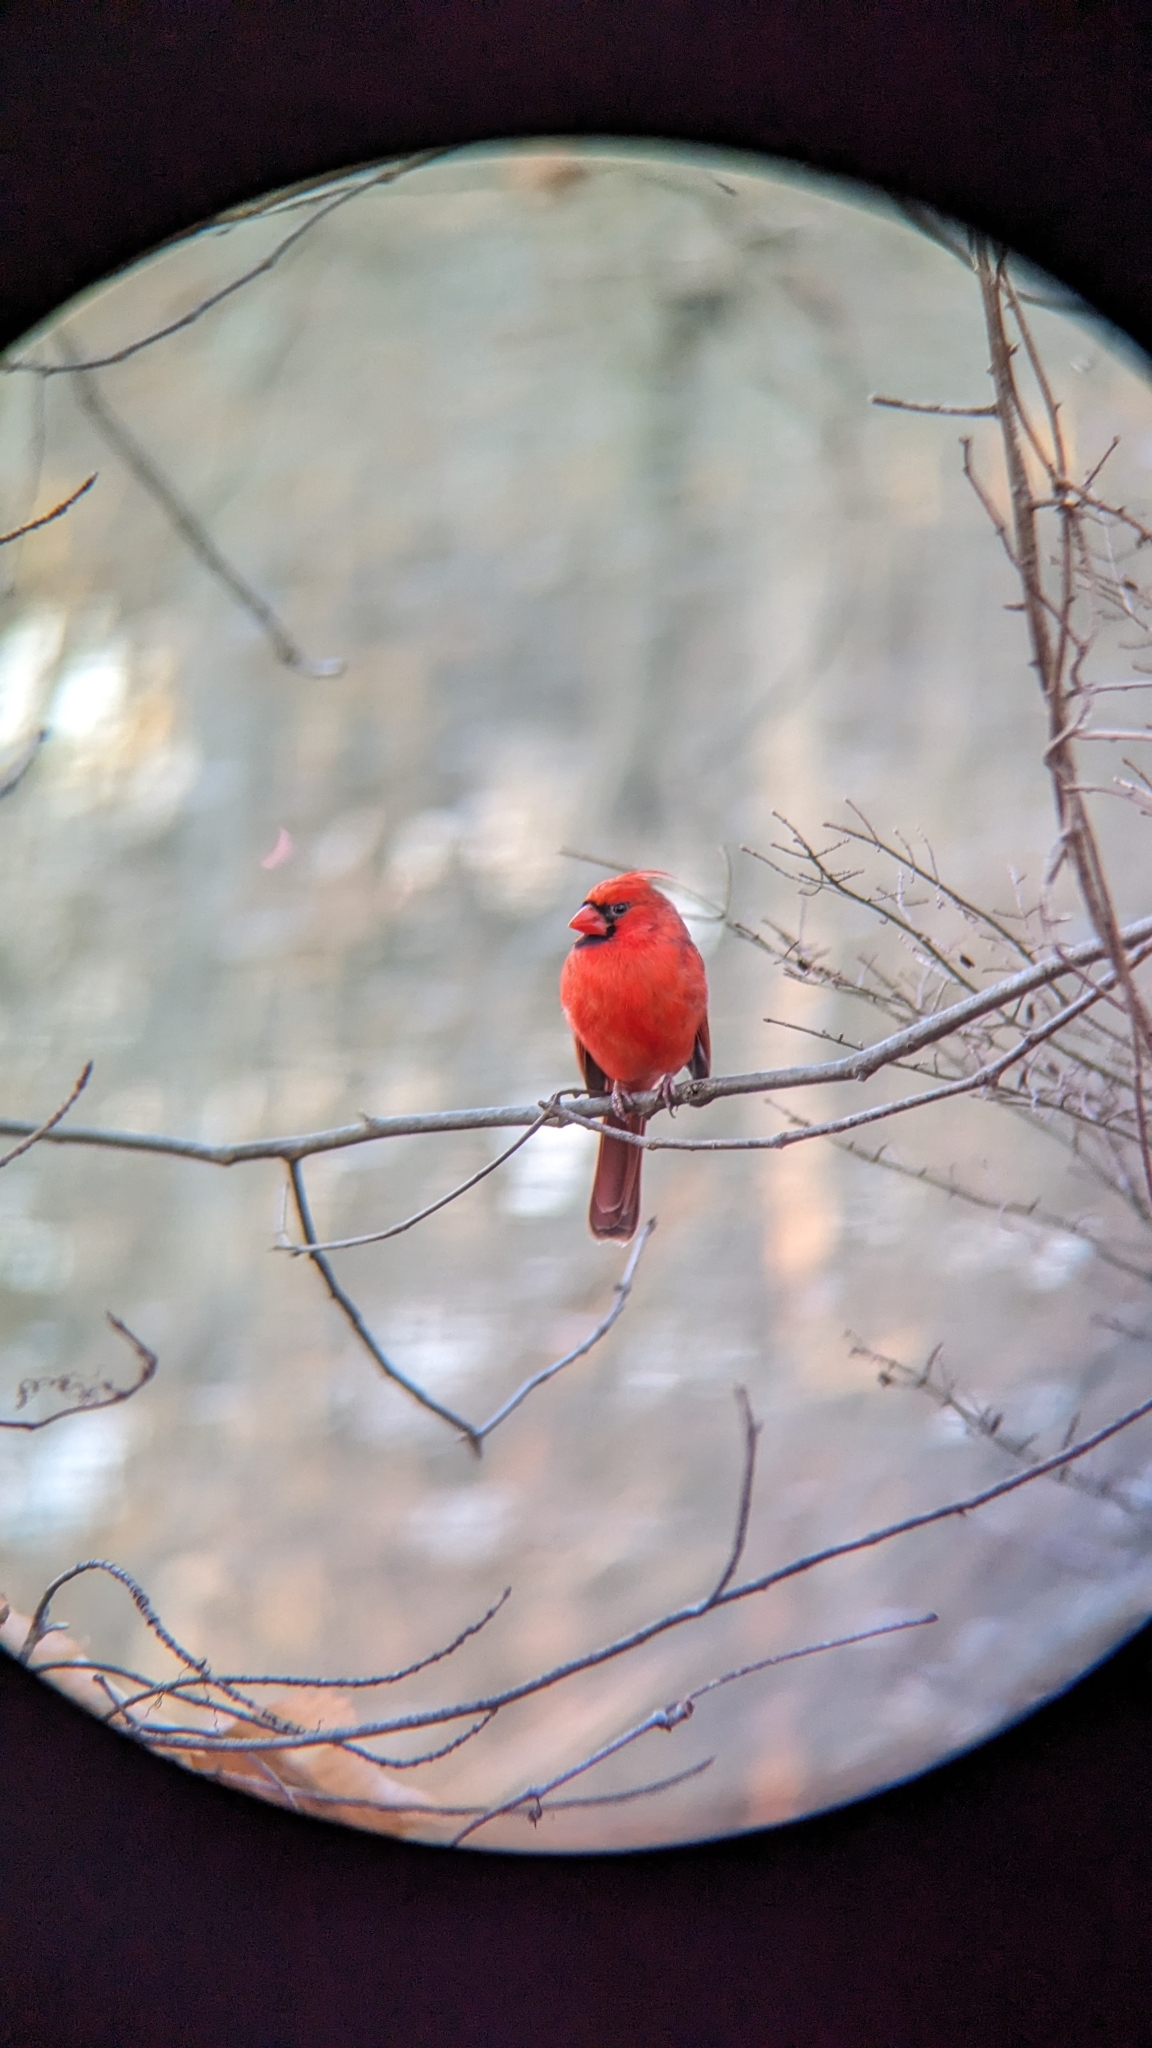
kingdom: Animalia
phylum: Chordata
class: Aves
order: Passeriformes
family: Cardinalidae
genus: Cardinalis
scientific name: Cardinalis cardinalis
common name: Northern cardinal
